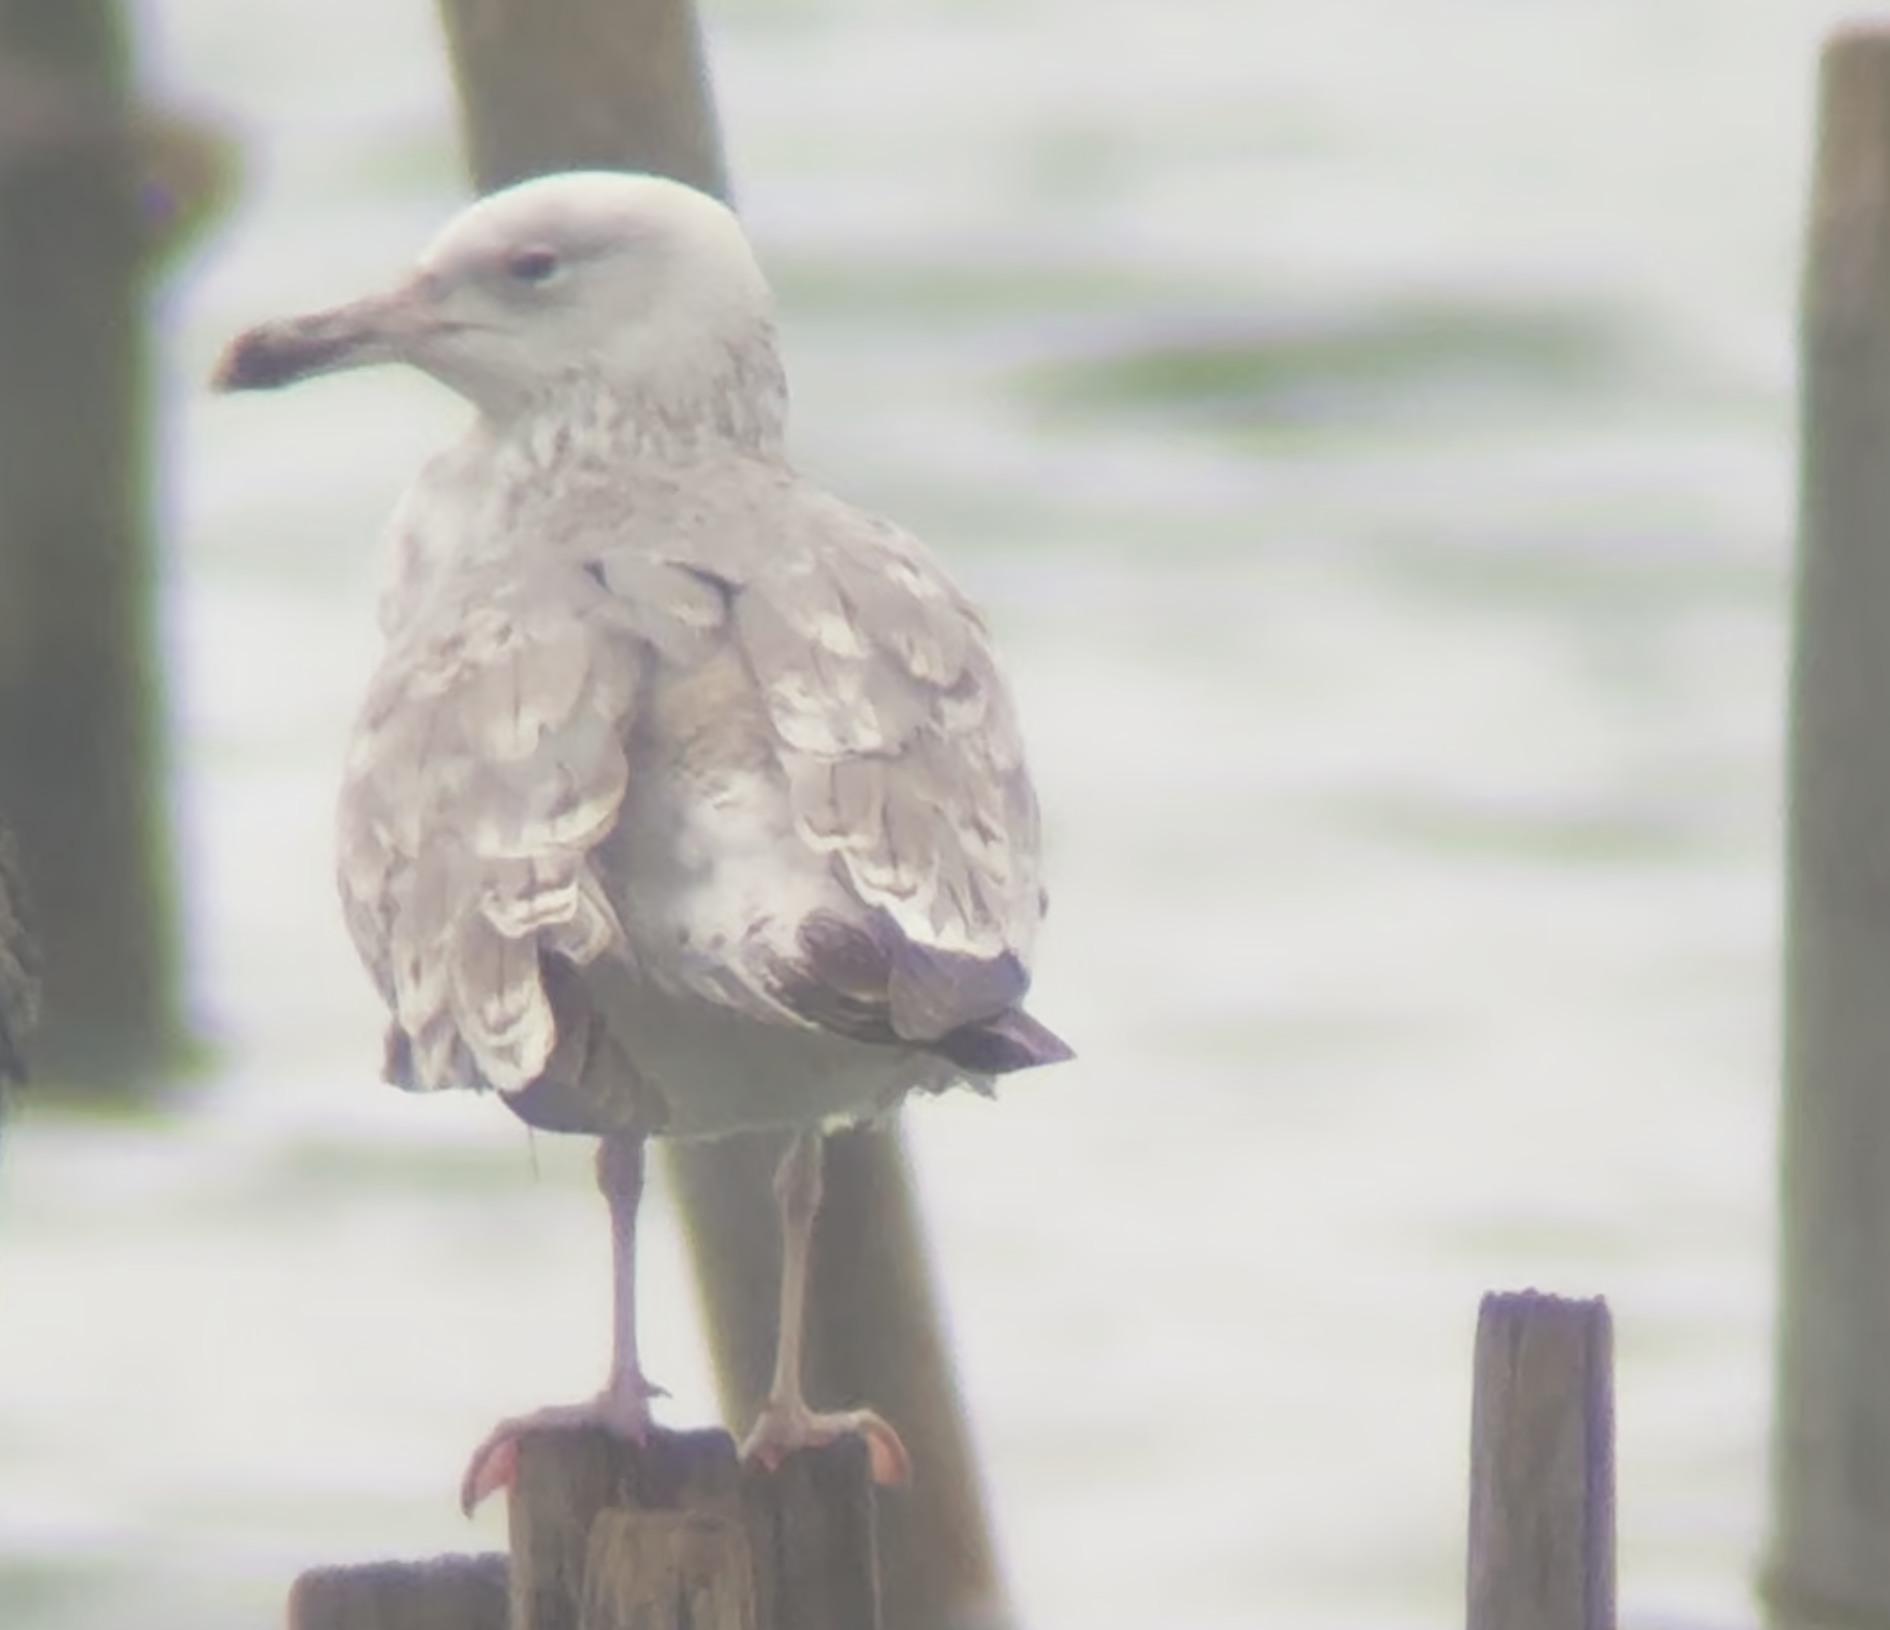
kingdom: Animalia
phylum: Chordata
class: Aves
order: Charadriiformes
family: Laridae
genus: Larus
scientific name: Larus cachinnans
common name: Caspian gull
